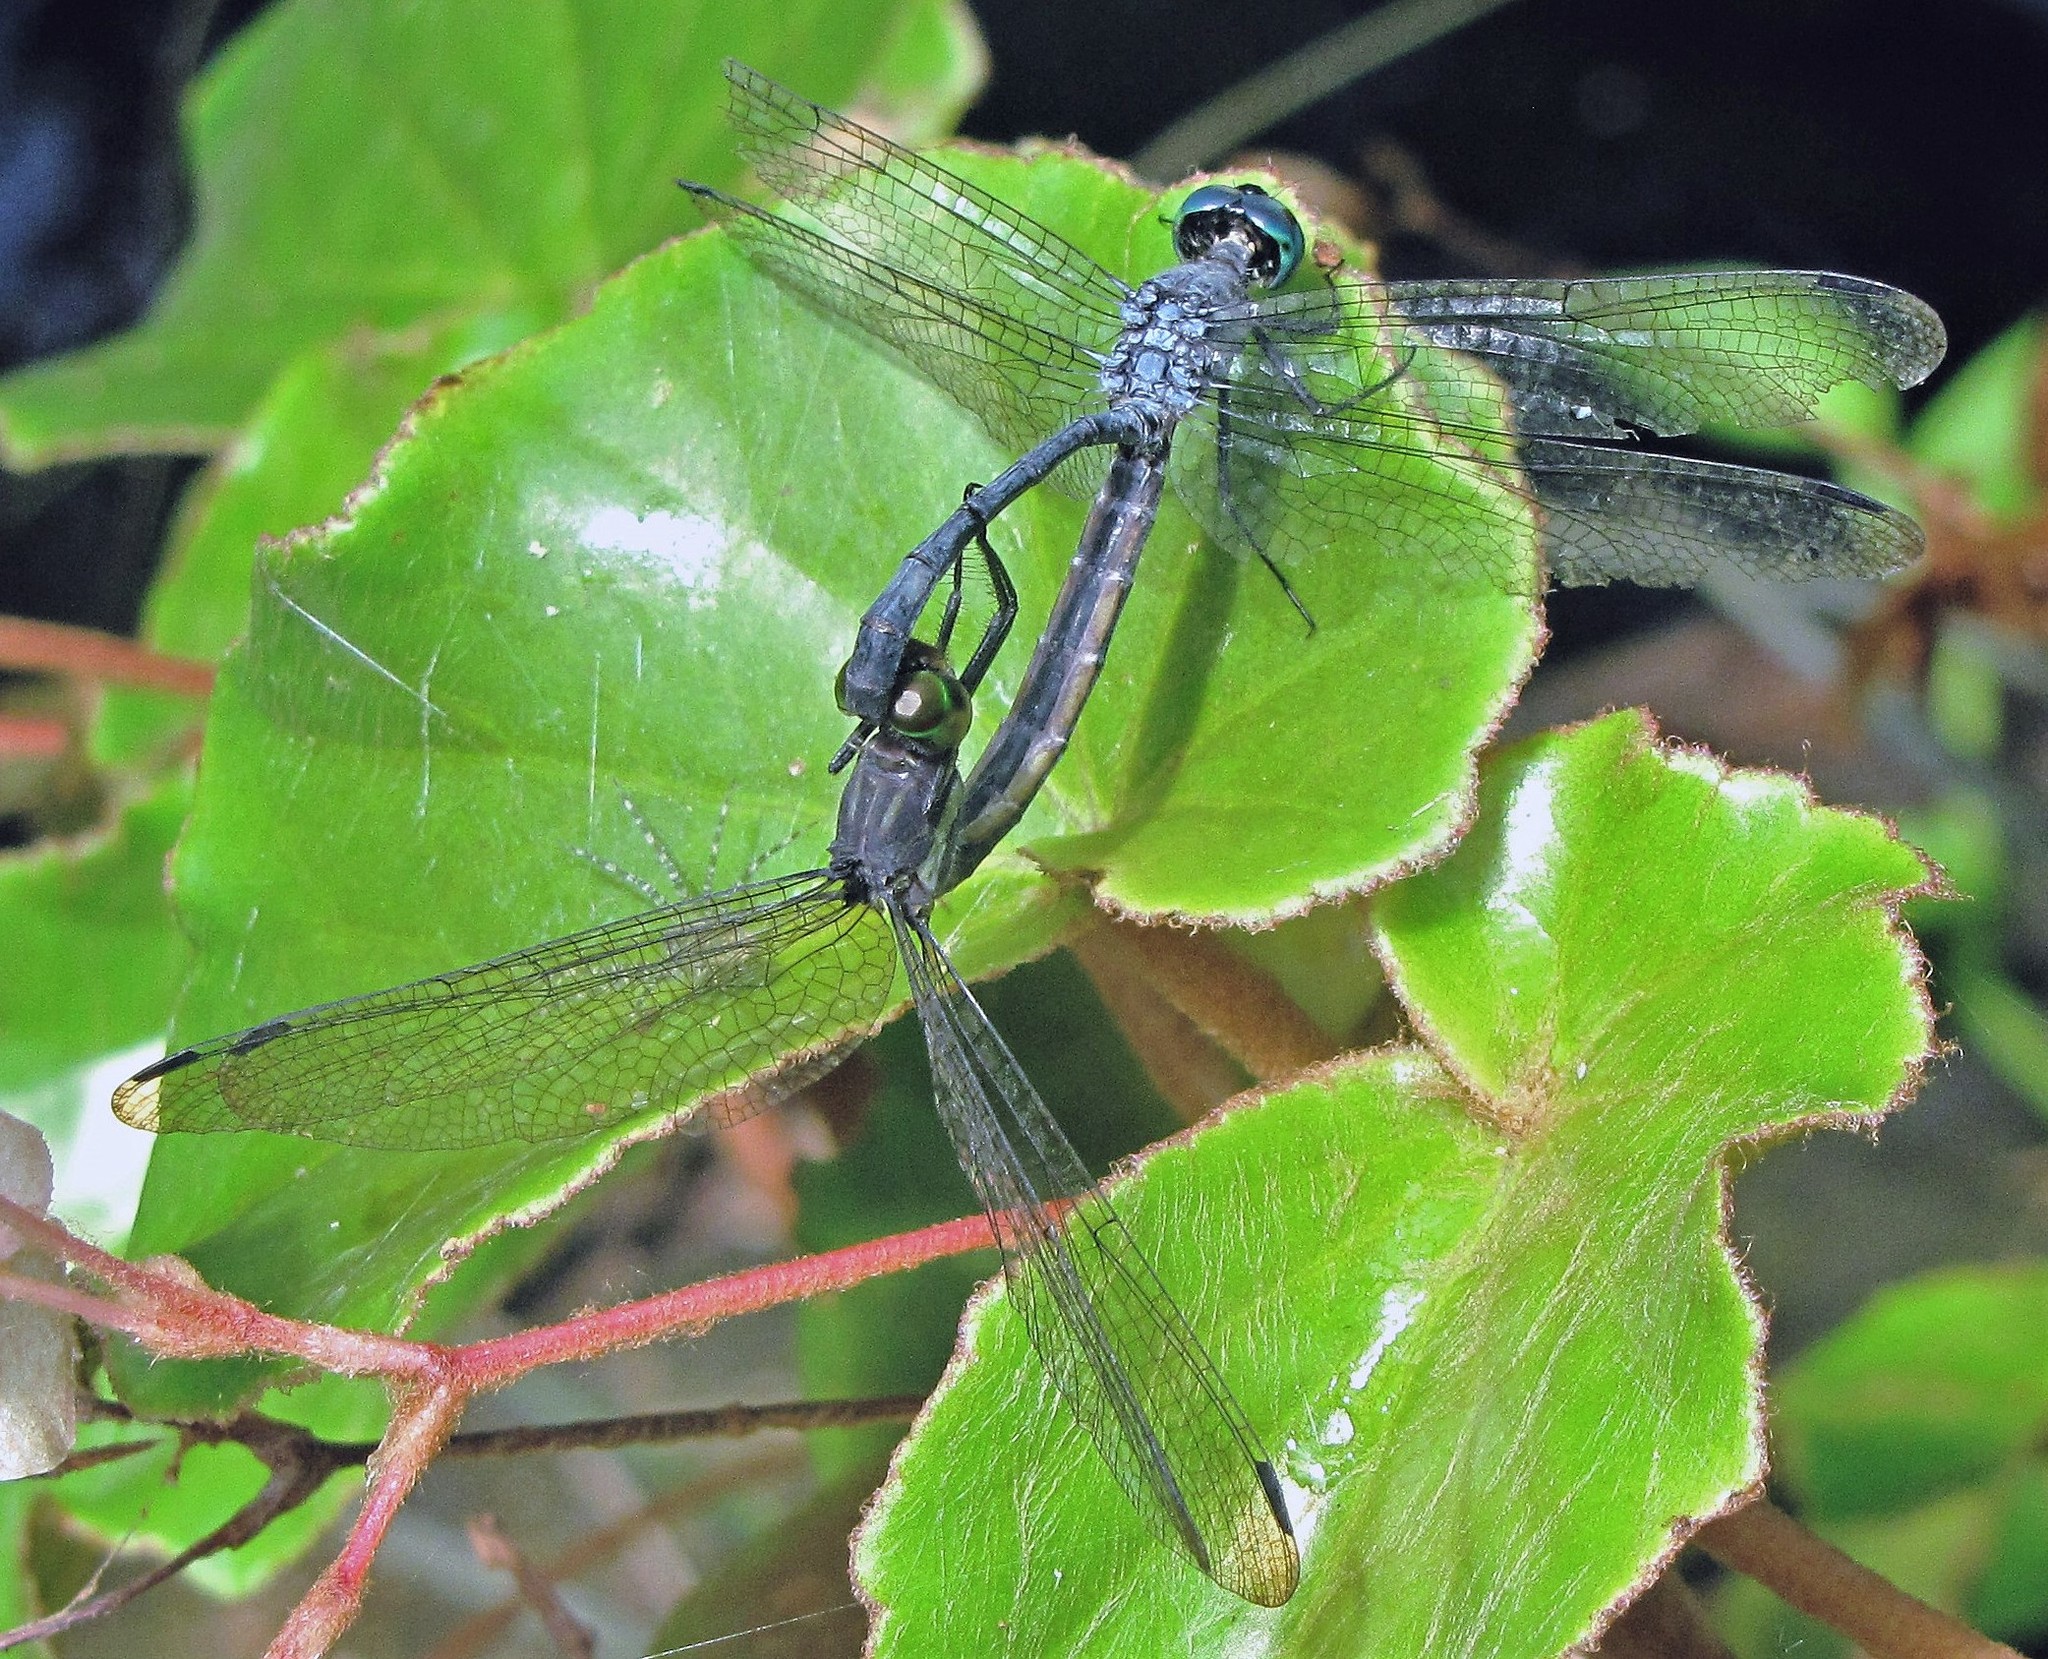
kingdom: Animalia
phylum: Arthropoda
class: Insecta
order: Odonata
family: Libellulidae
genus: Oligoclada
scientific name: Oligoclada laetitia
